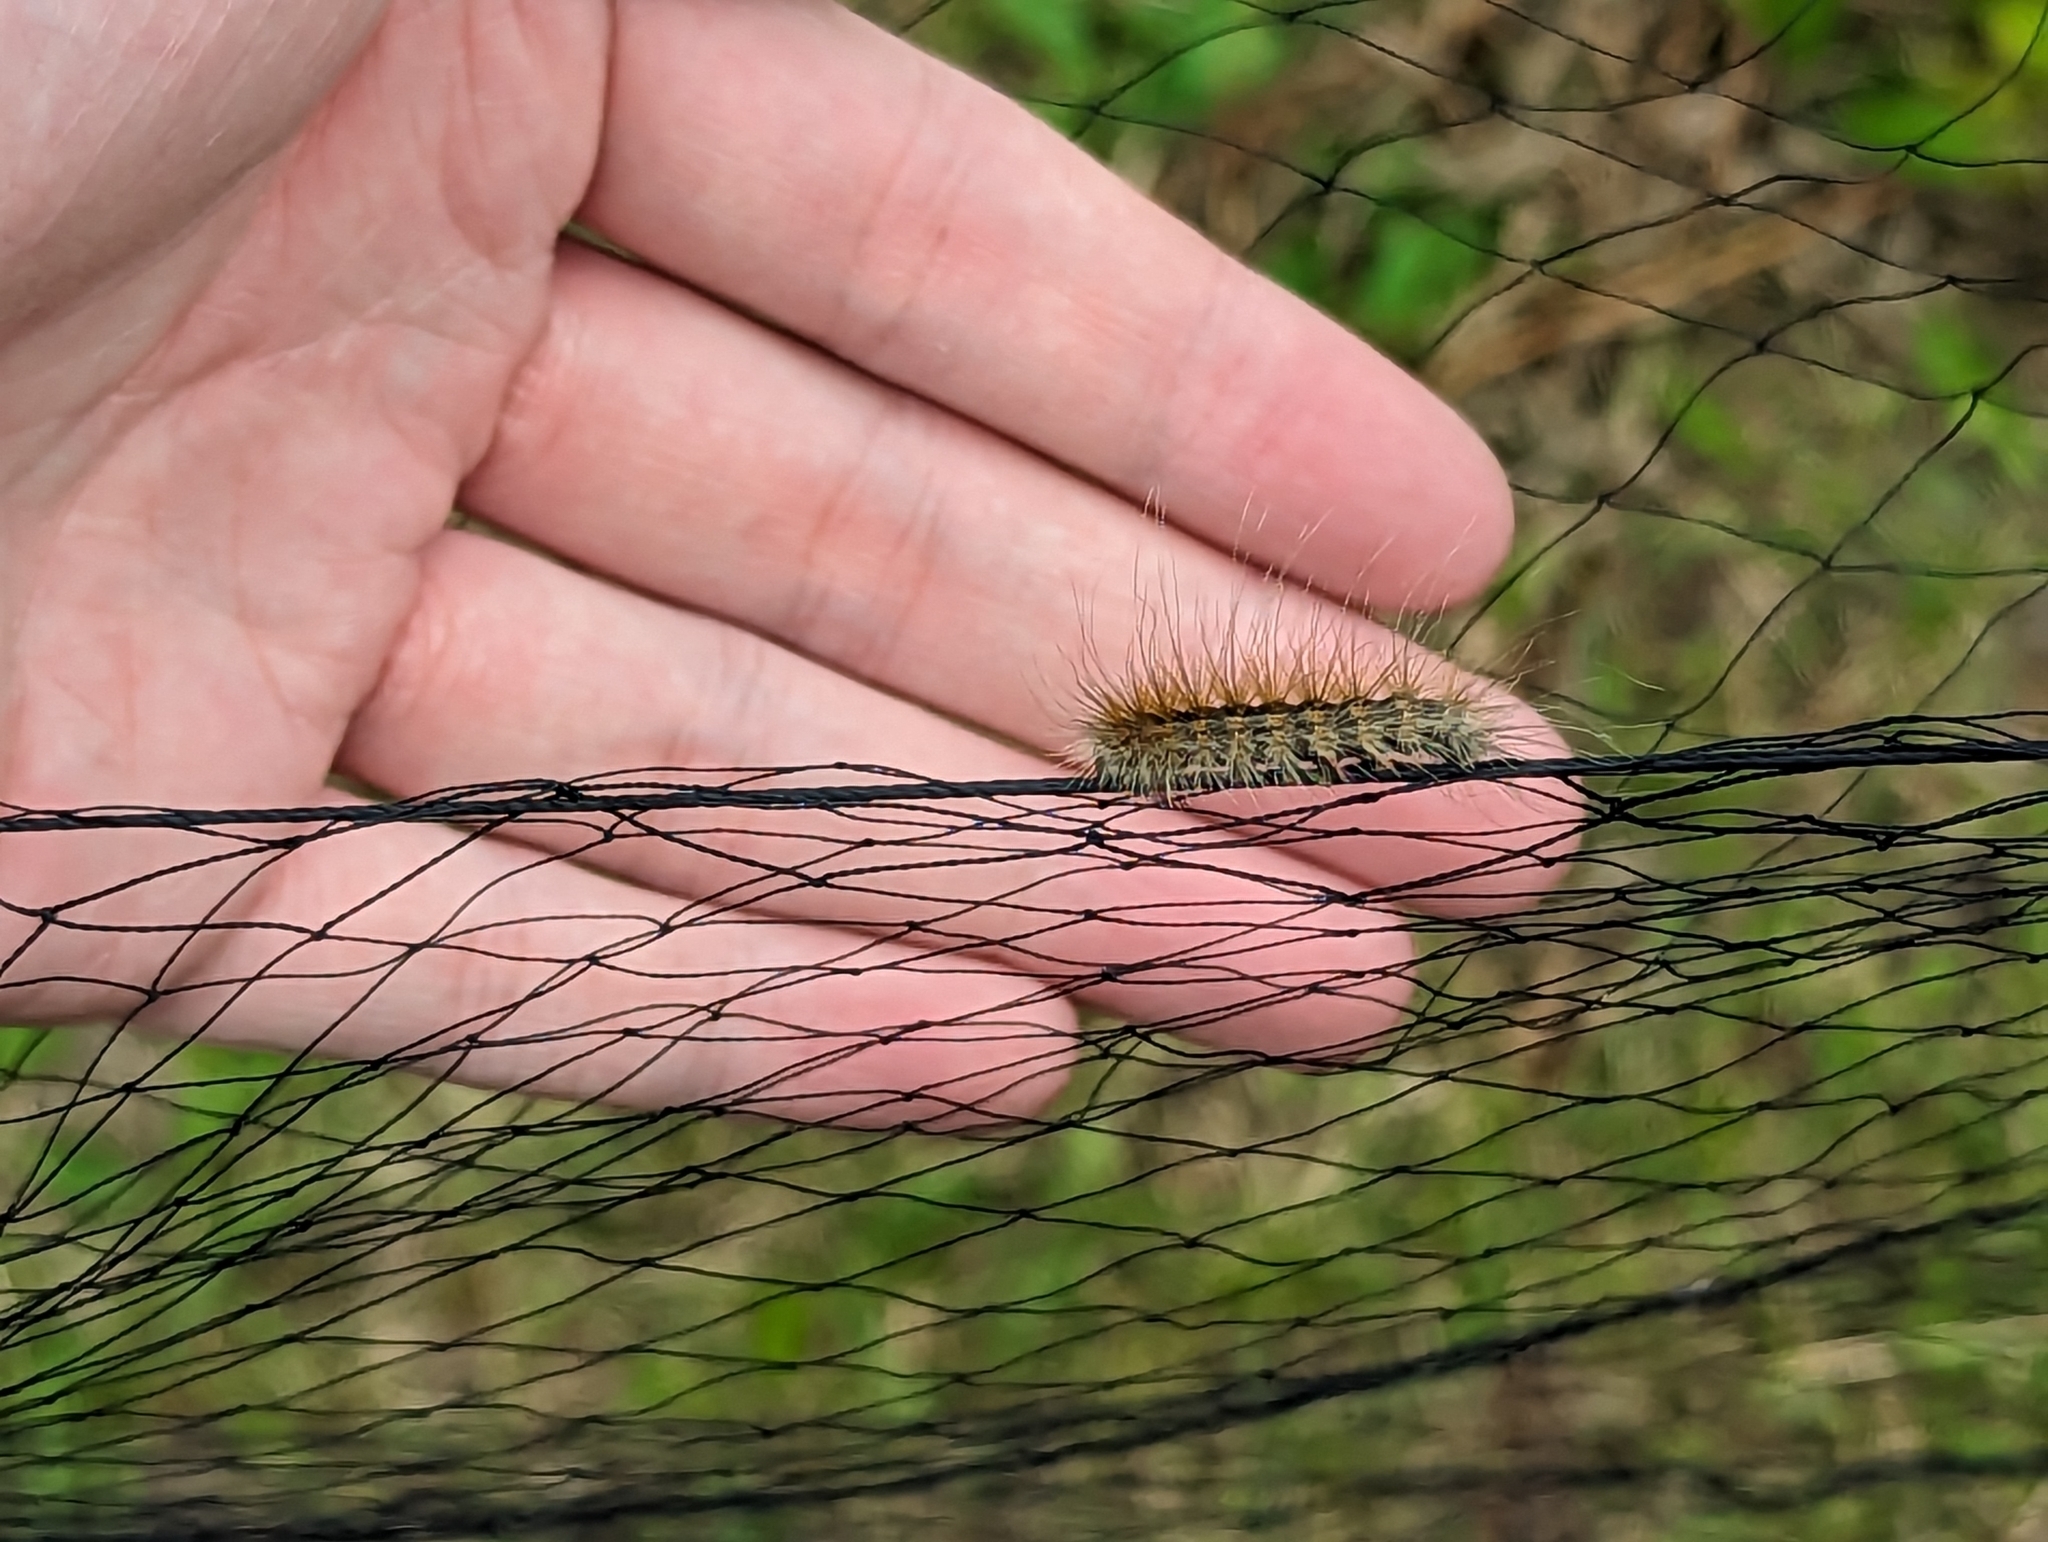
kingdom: Animalia
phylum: Arthropoda
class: Insecta
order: Lepidoptera
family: Erebidae
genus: Hyphantria
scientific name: Hyphantria cunea
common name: American white moth
